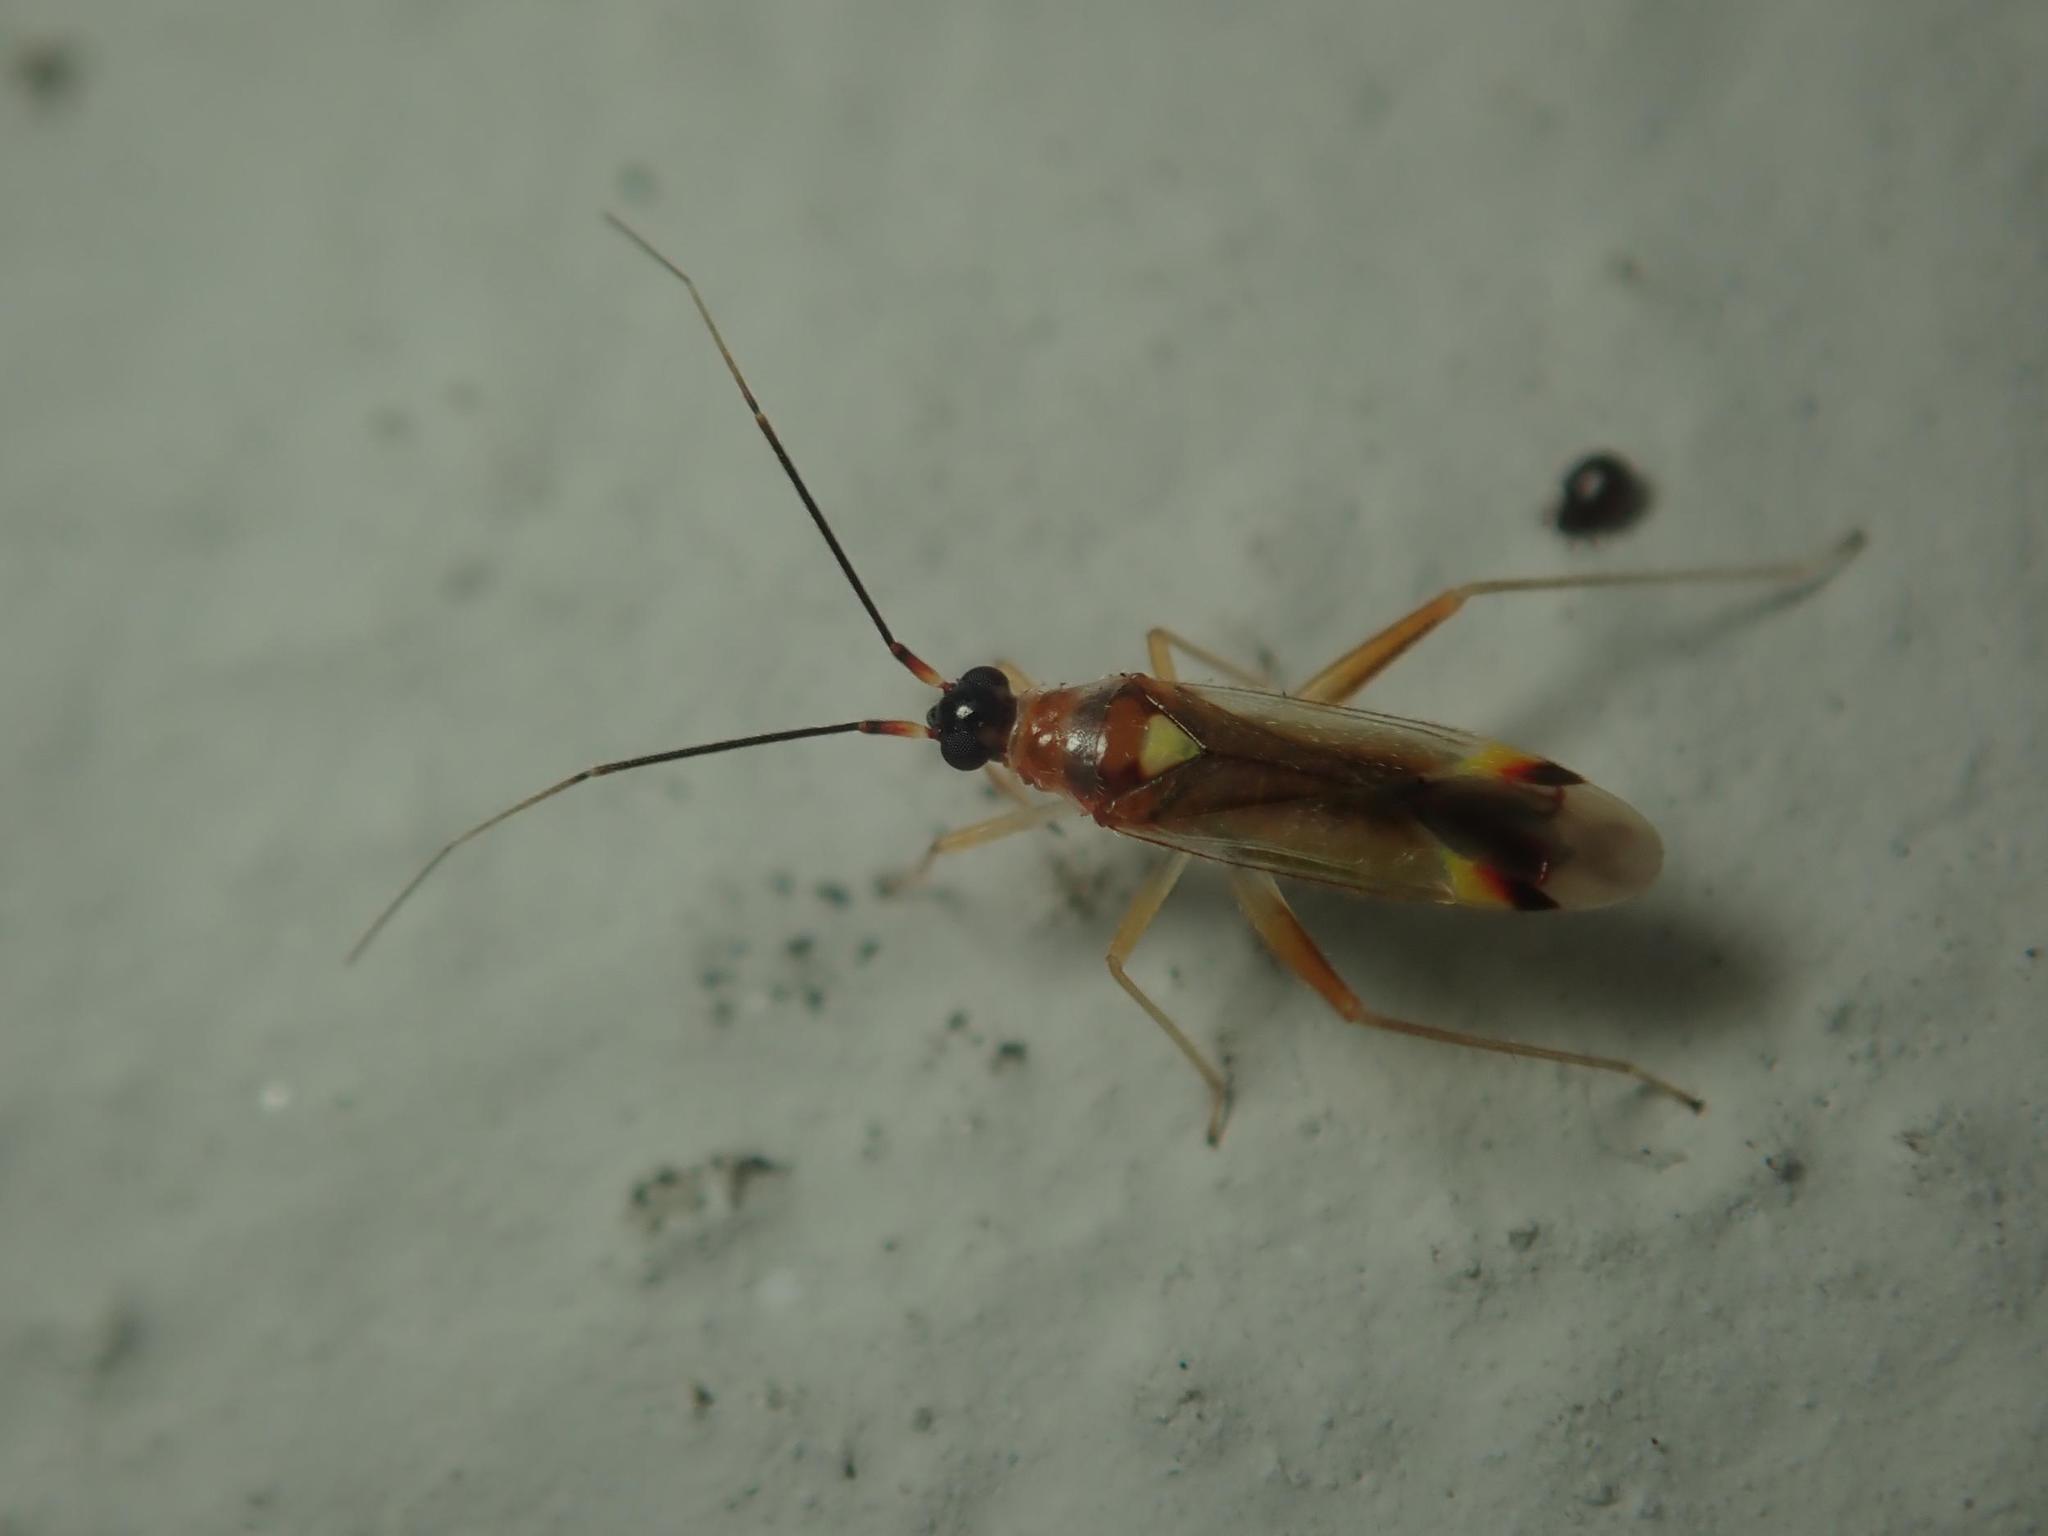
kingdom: Animalia
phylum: Arthropoda
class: Insecta
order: Hemiptera
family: Miridae
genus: Campyloneura
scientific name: Campyloneura virgula
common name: Predatory bug
